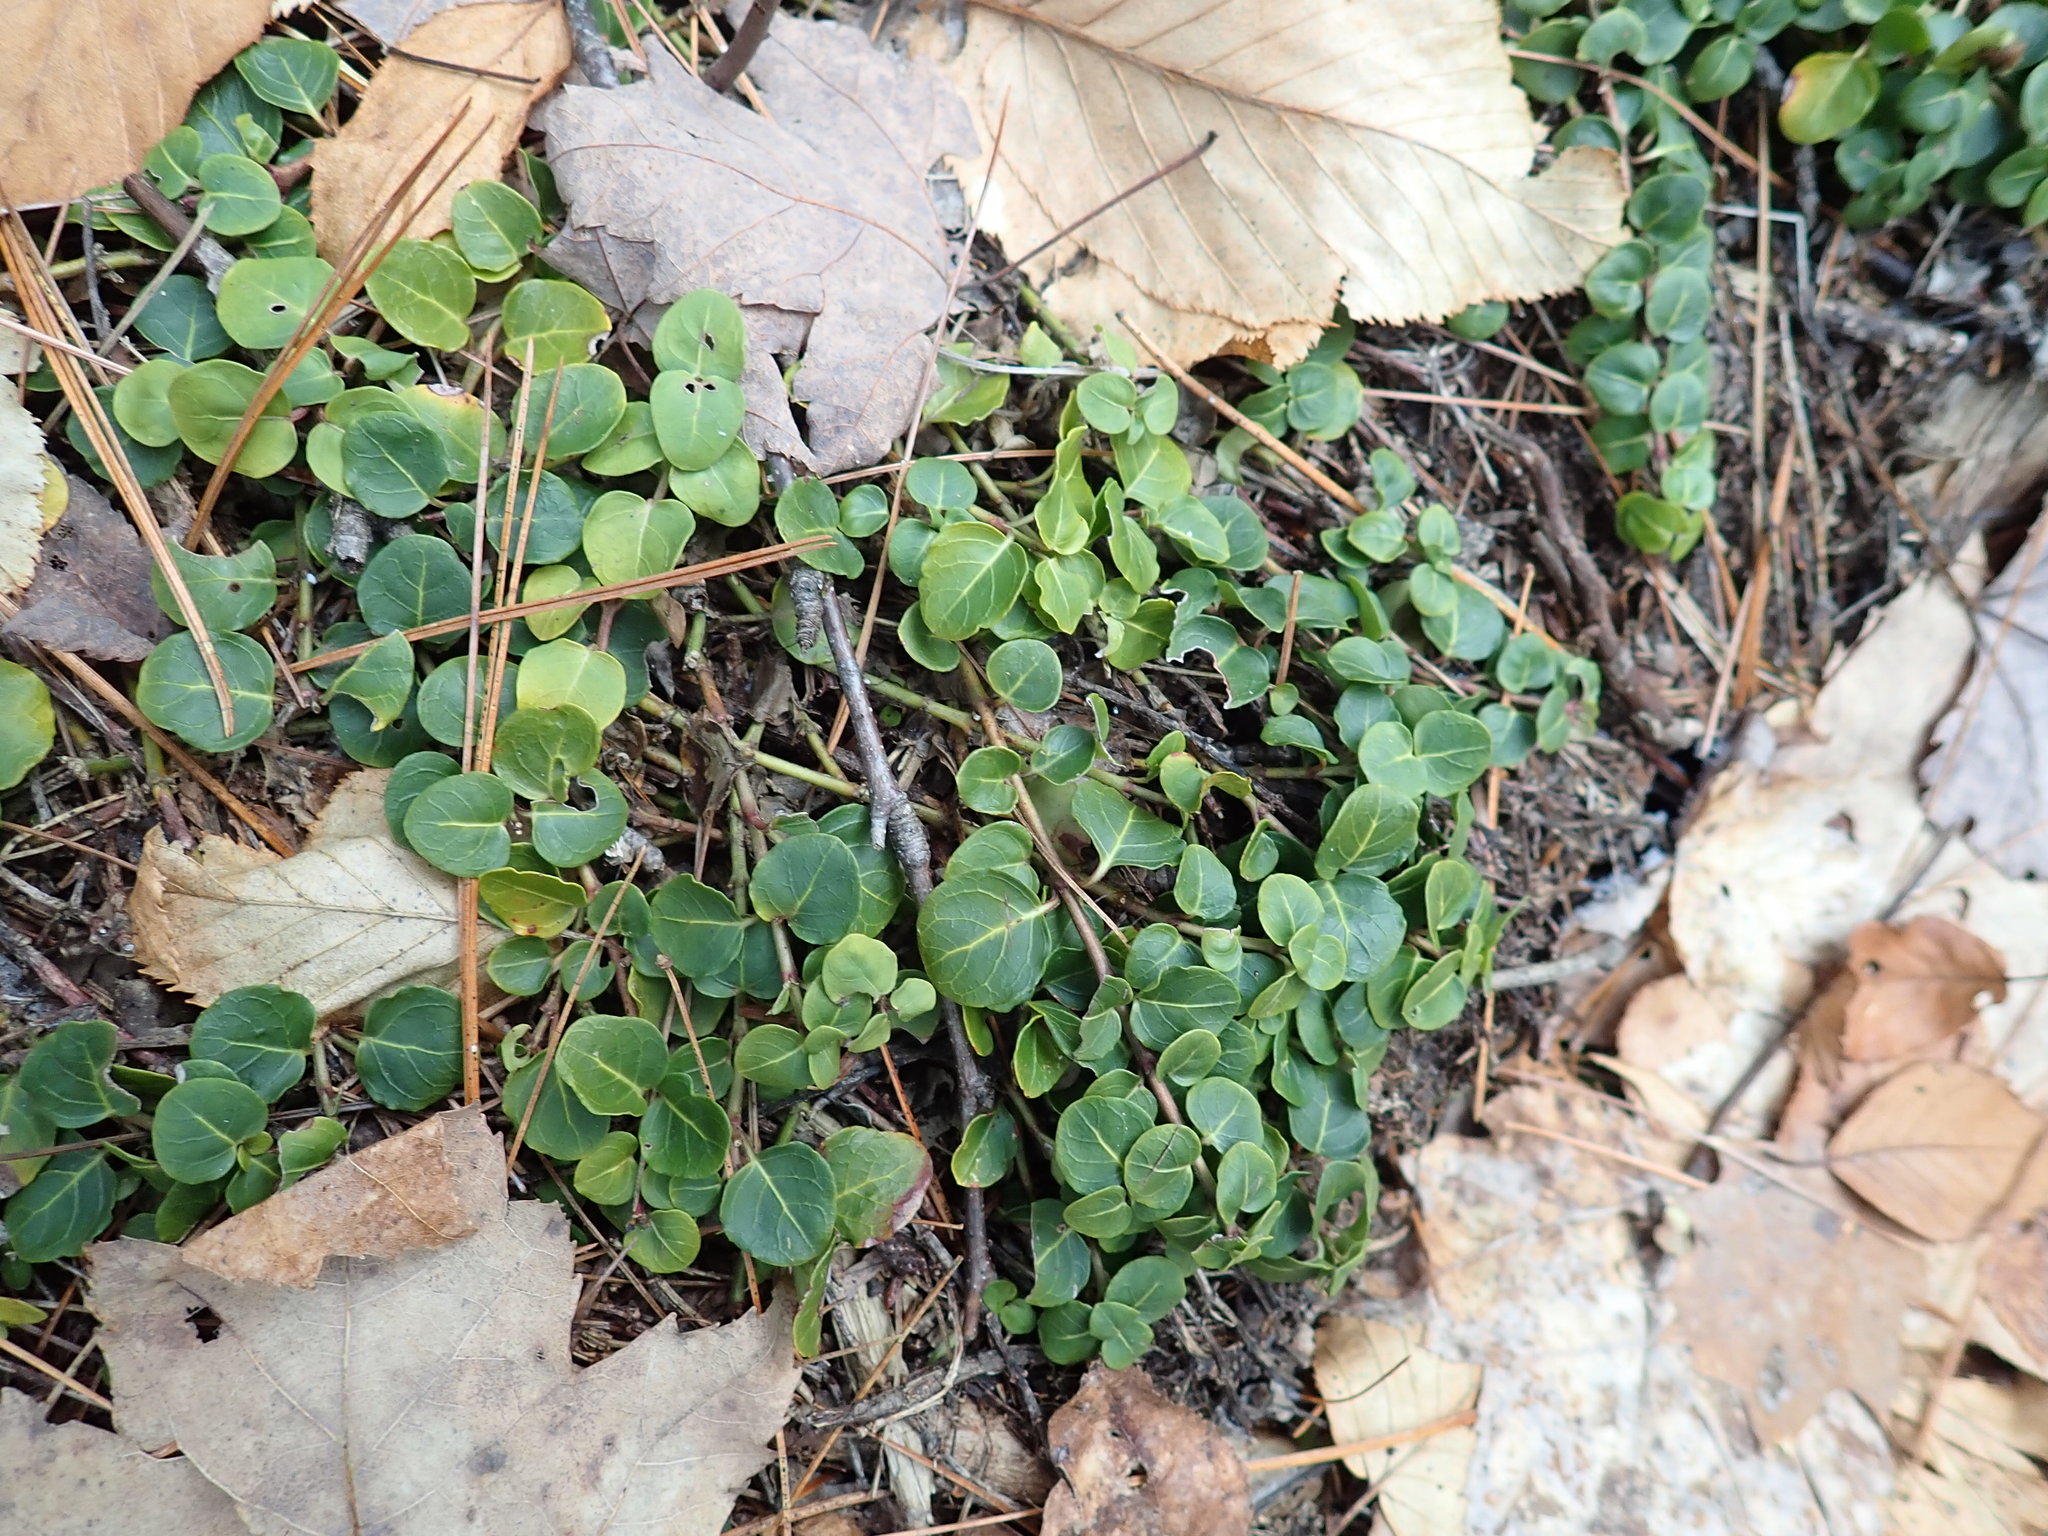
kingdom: Plantae
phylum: Tracheophyta
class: Magnoliopsida
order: Gentianales
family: Rubiaceae
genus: Mitchella
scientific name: Mitchella repens
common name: Partridge-berry
